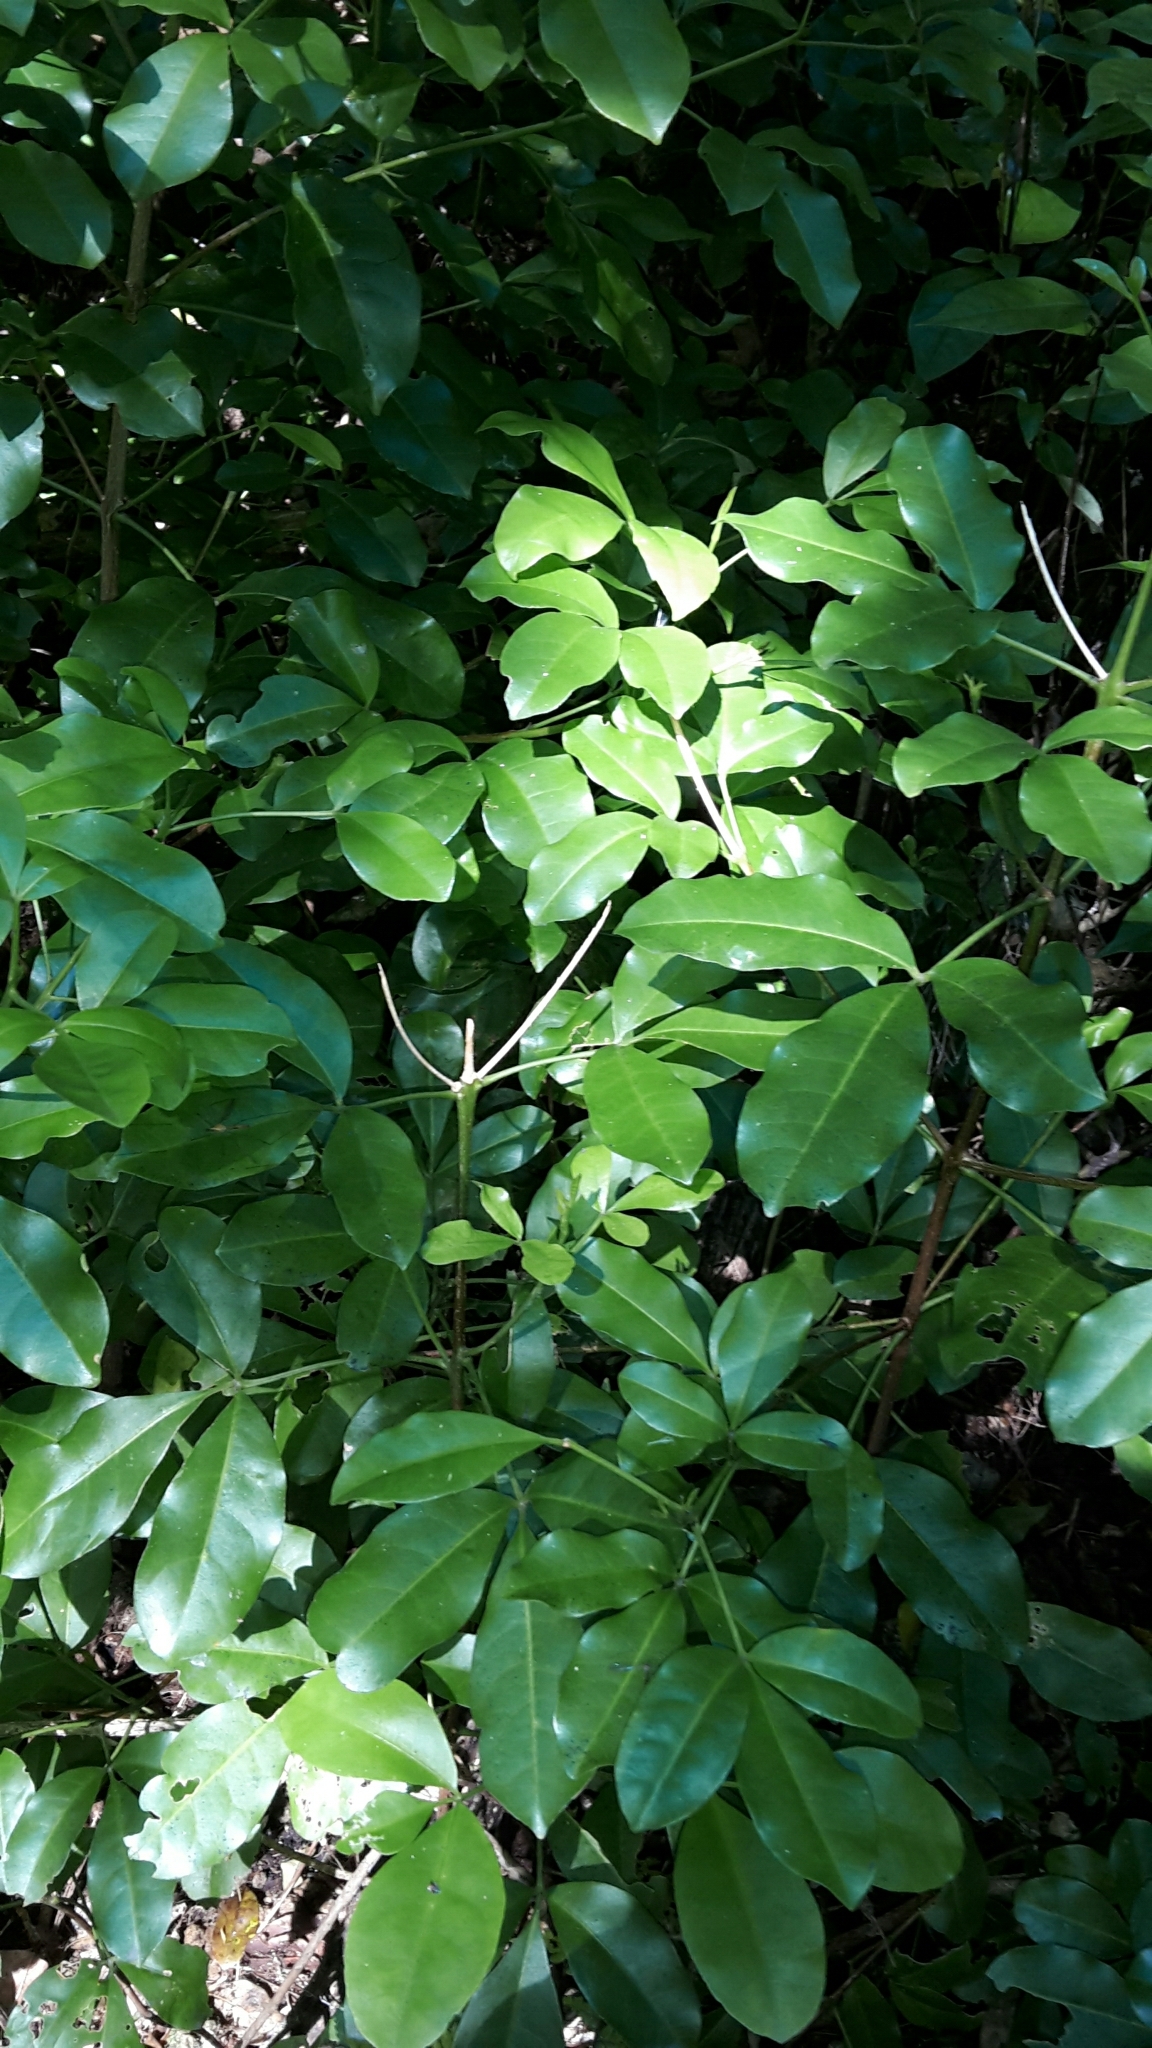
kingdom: Plantae
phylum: Tracheophyta
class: Magnoliopsida
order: Sapindales
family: Rutaceae
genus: Melicope
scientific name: Melicope ternata
